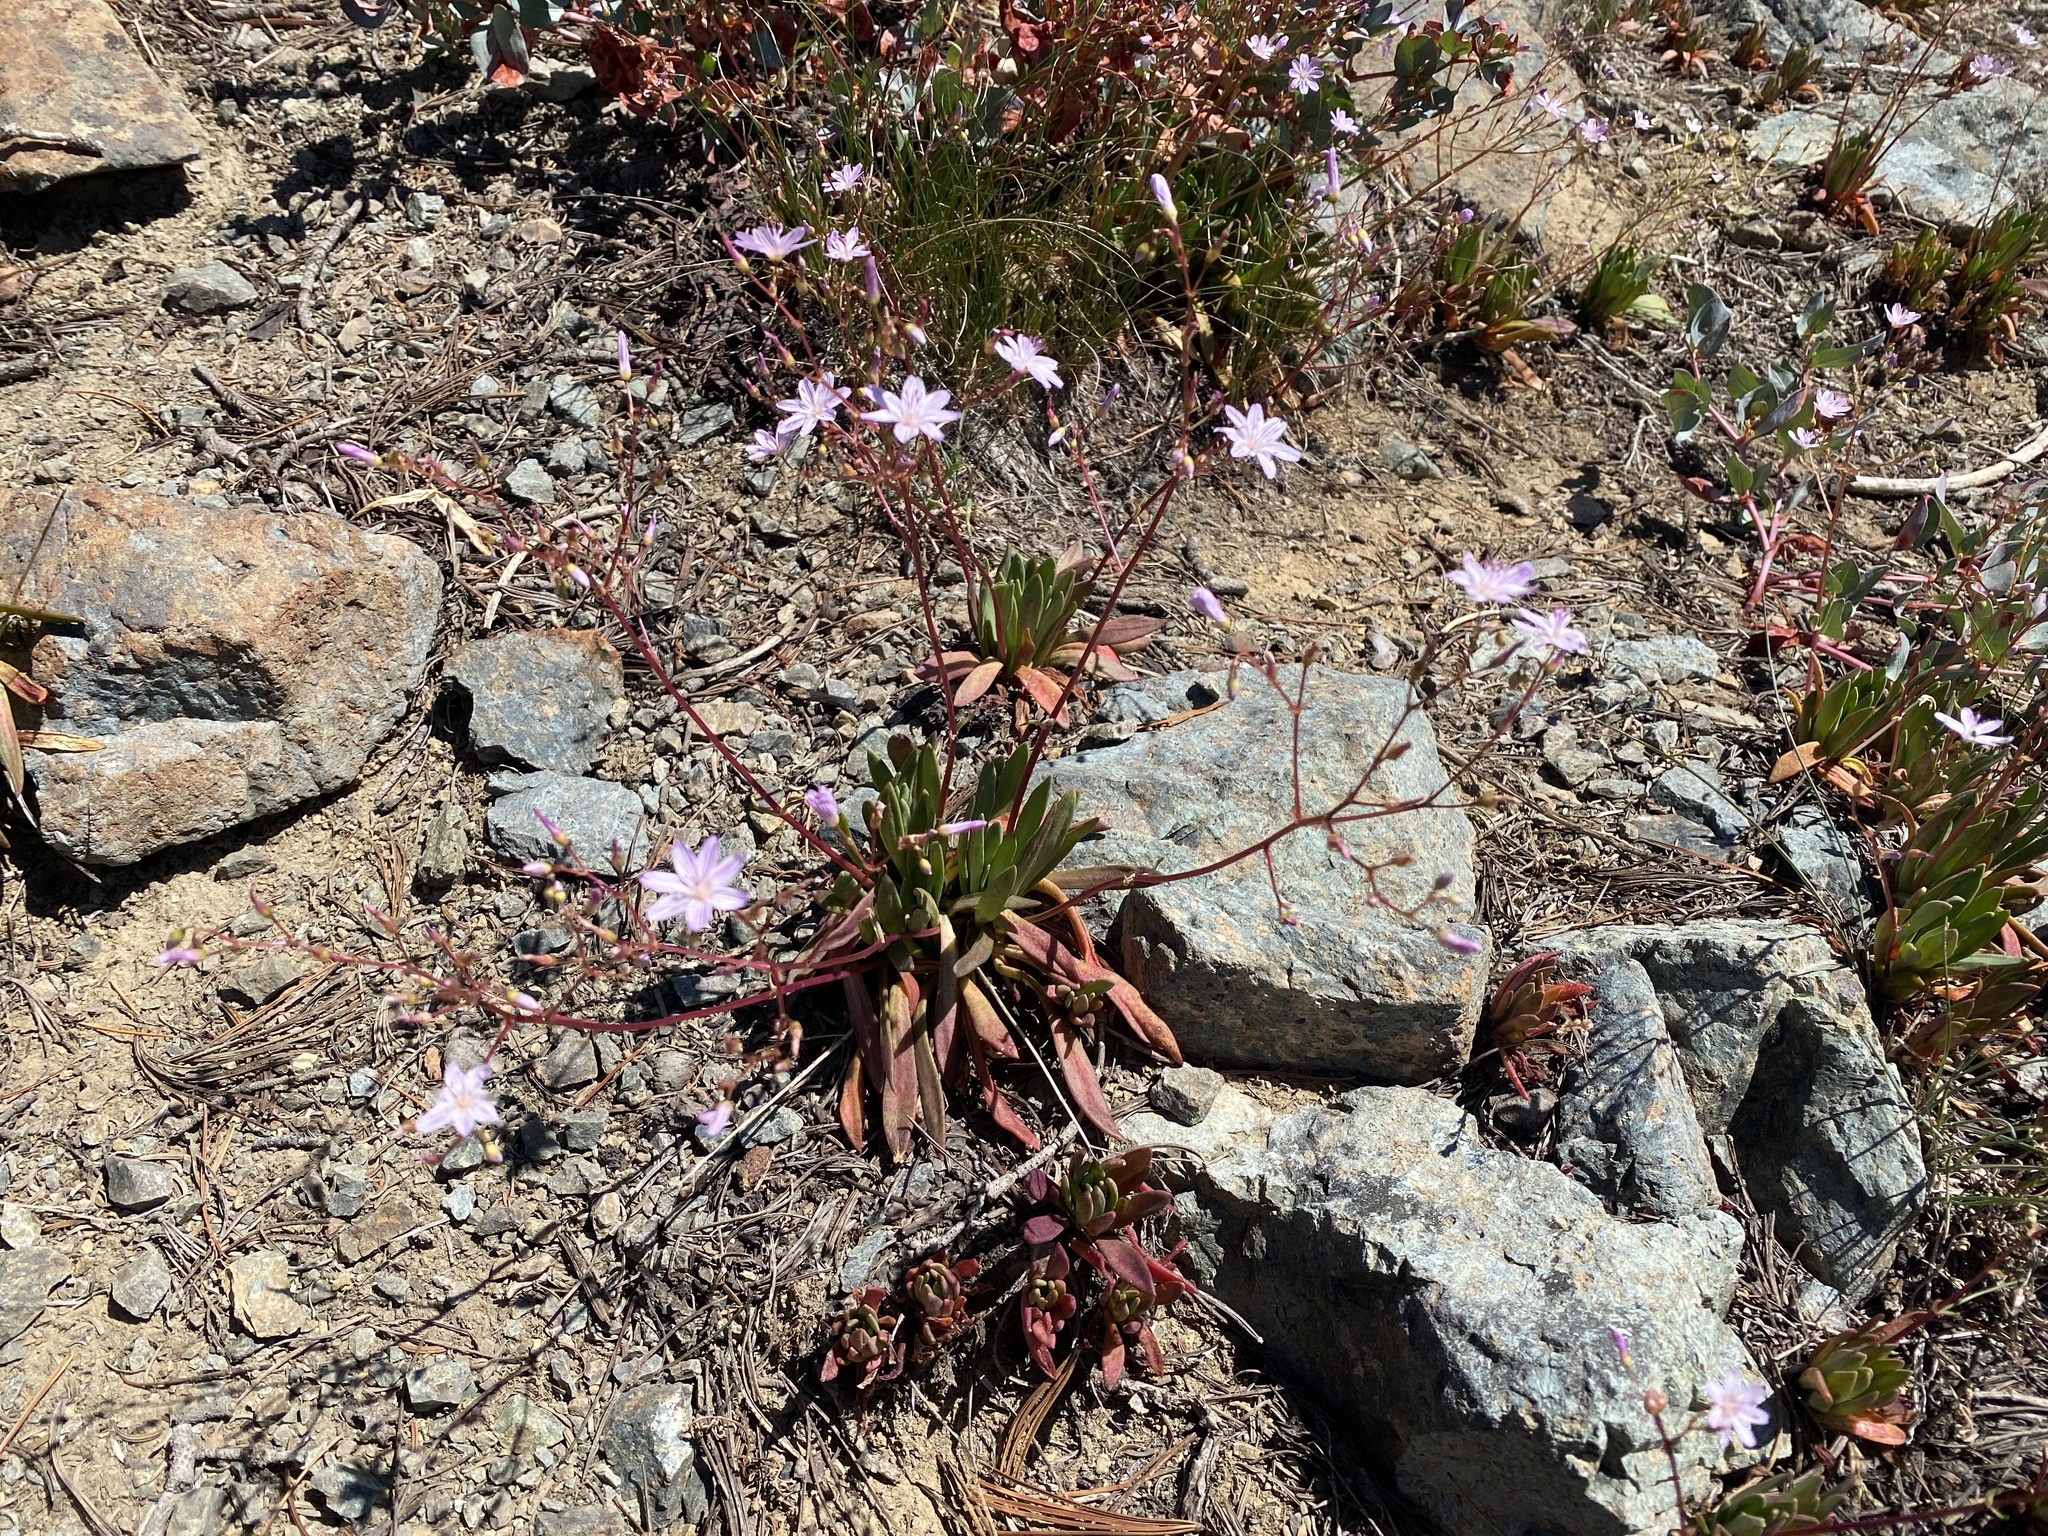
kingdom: Plantae
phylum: Tracheophyta
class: Magnoliopsida
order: Caryophyllales
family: Montiaceae
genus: Lewisia
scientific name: Lewisia columbiana
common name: Columbia lewisia
